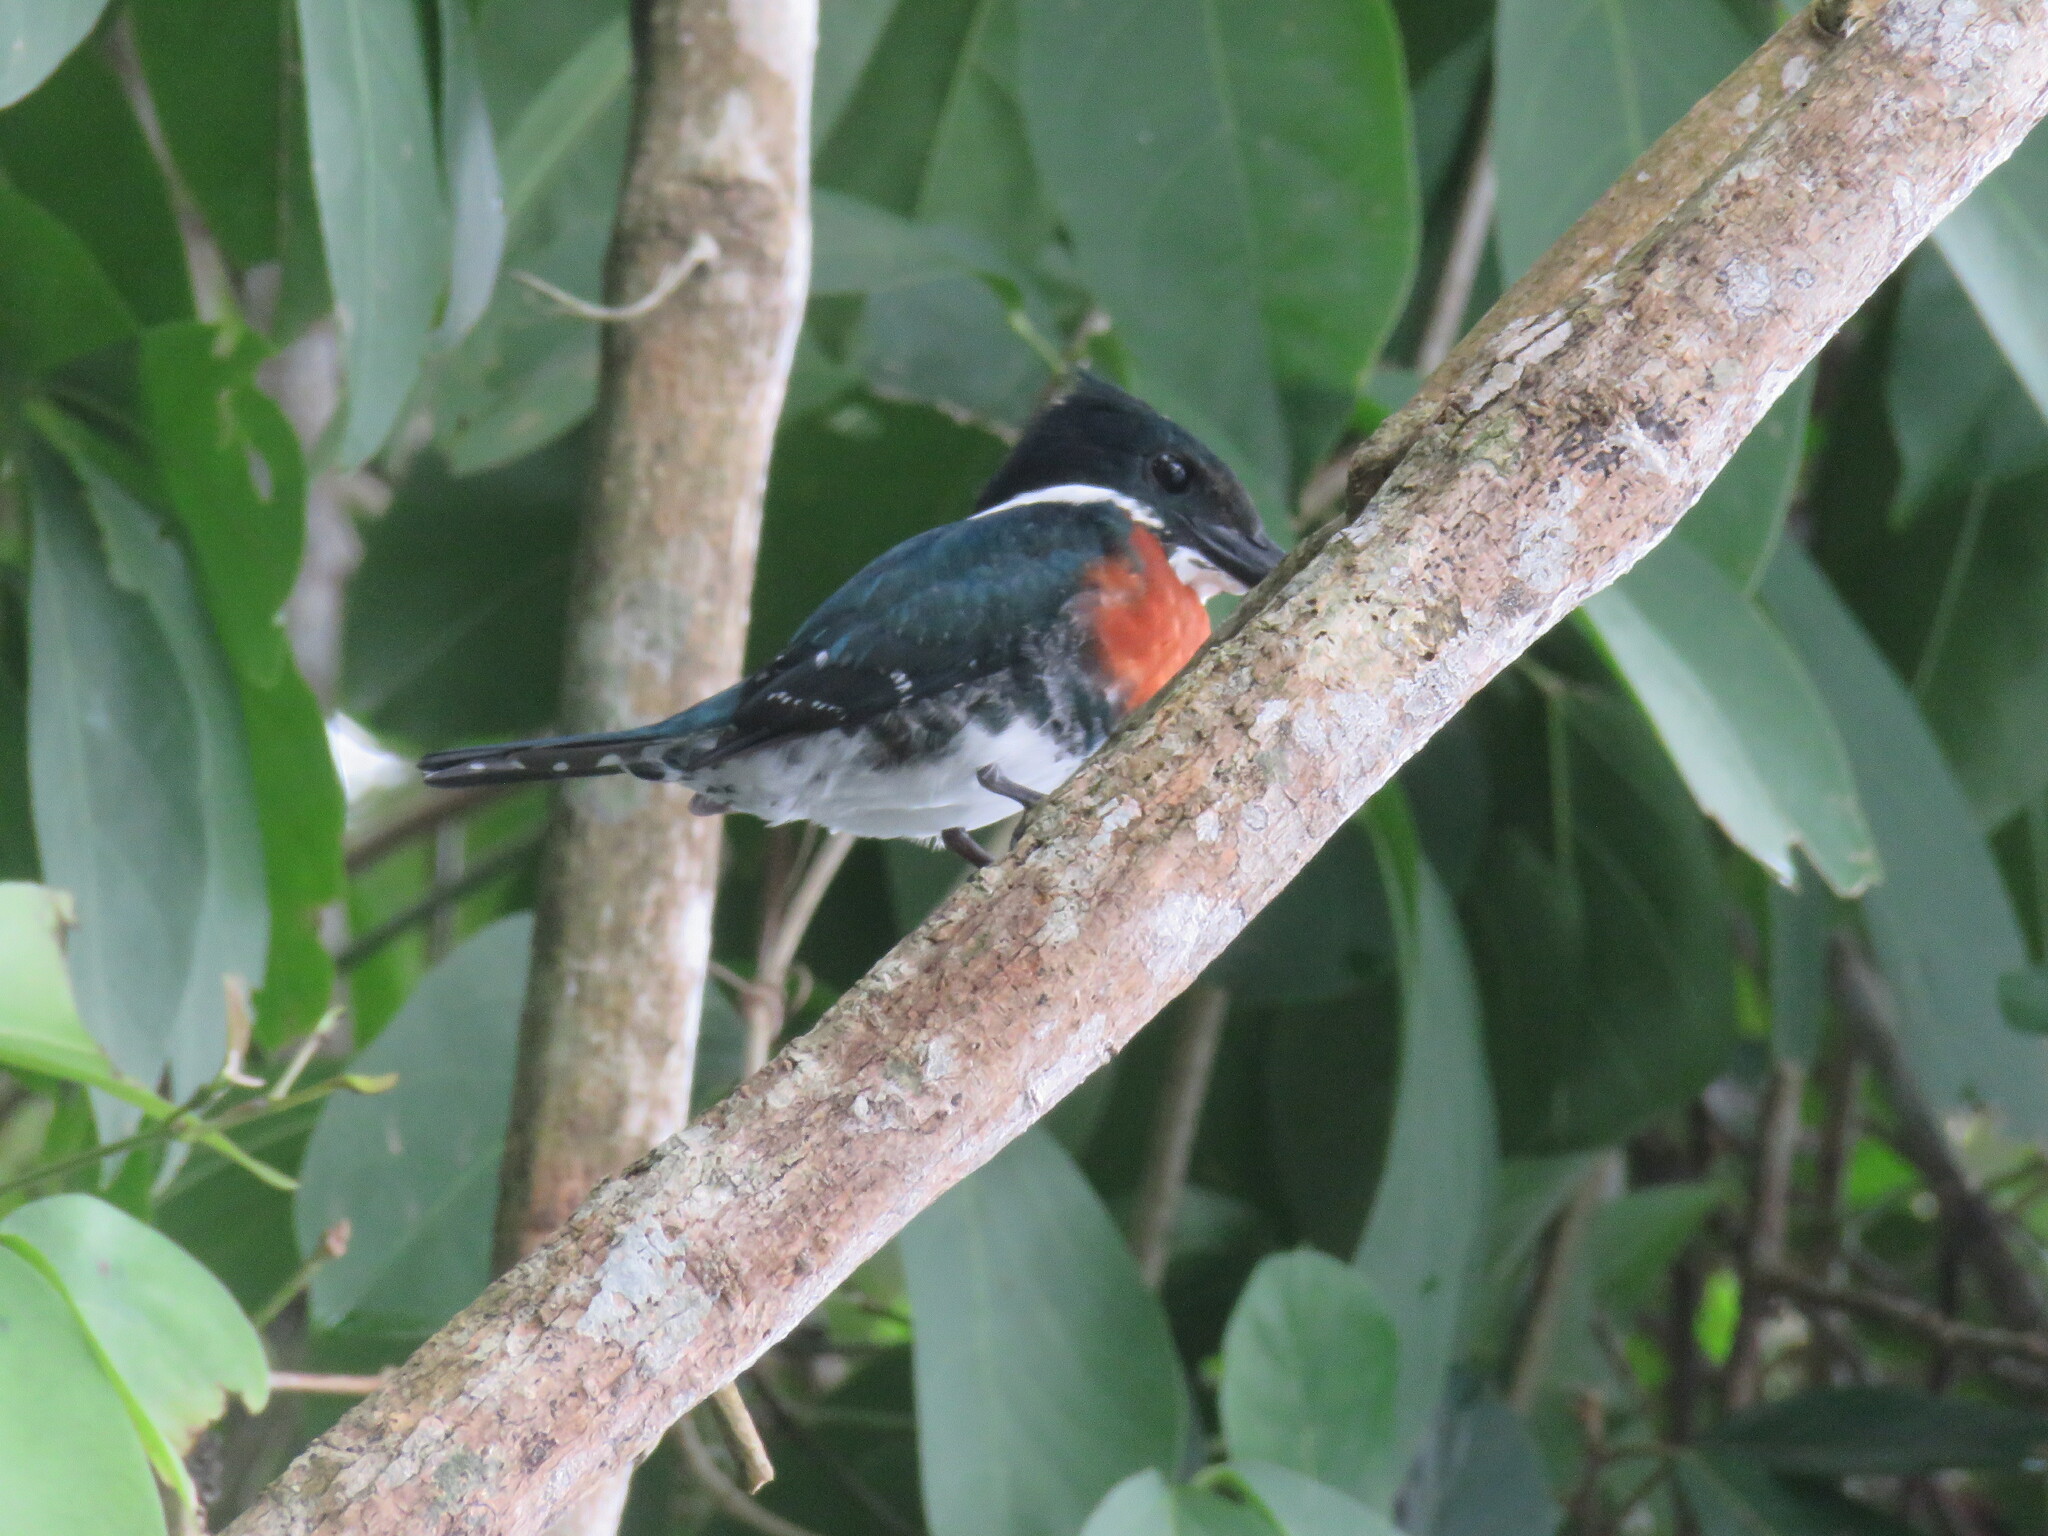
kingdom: Animalia
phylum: Chordata
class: Aves
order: Coraciiformes
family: Alcedinidae
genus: Chloroceryle
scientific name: Chloroceryle americana
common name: Green kingfisher
